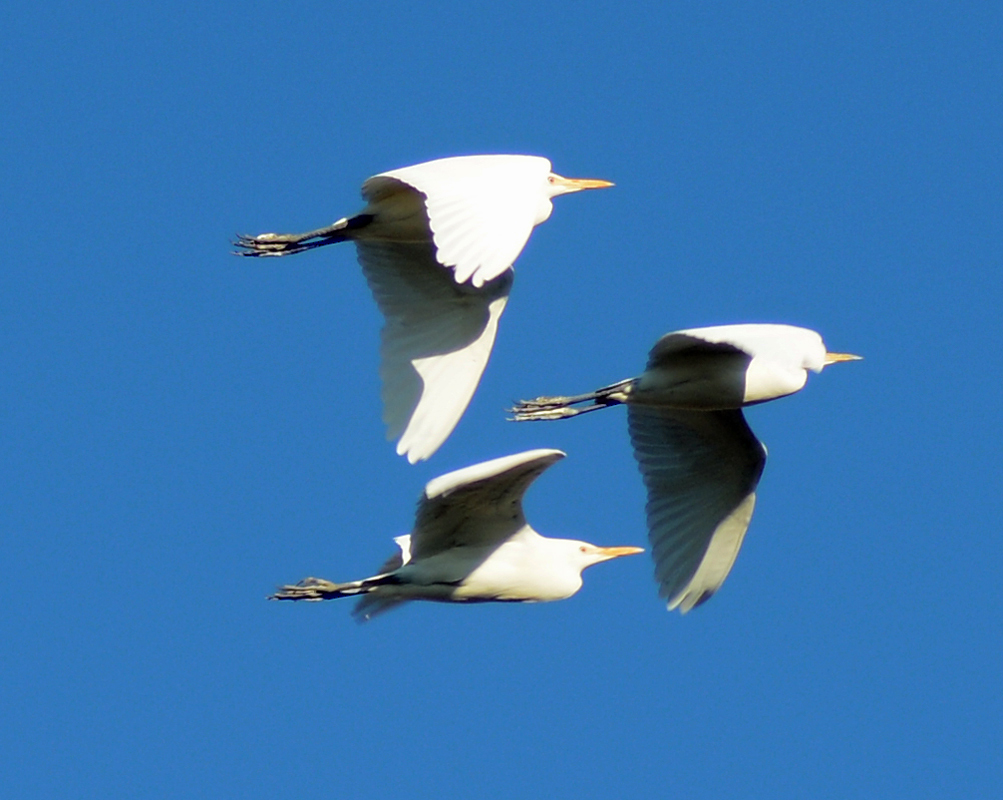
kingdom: Animalia
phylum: Chordata
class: Aves
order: Pelecaniformes
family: Ardeidae
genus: Egretta
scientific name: Egretta thula
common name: Snowy egret
